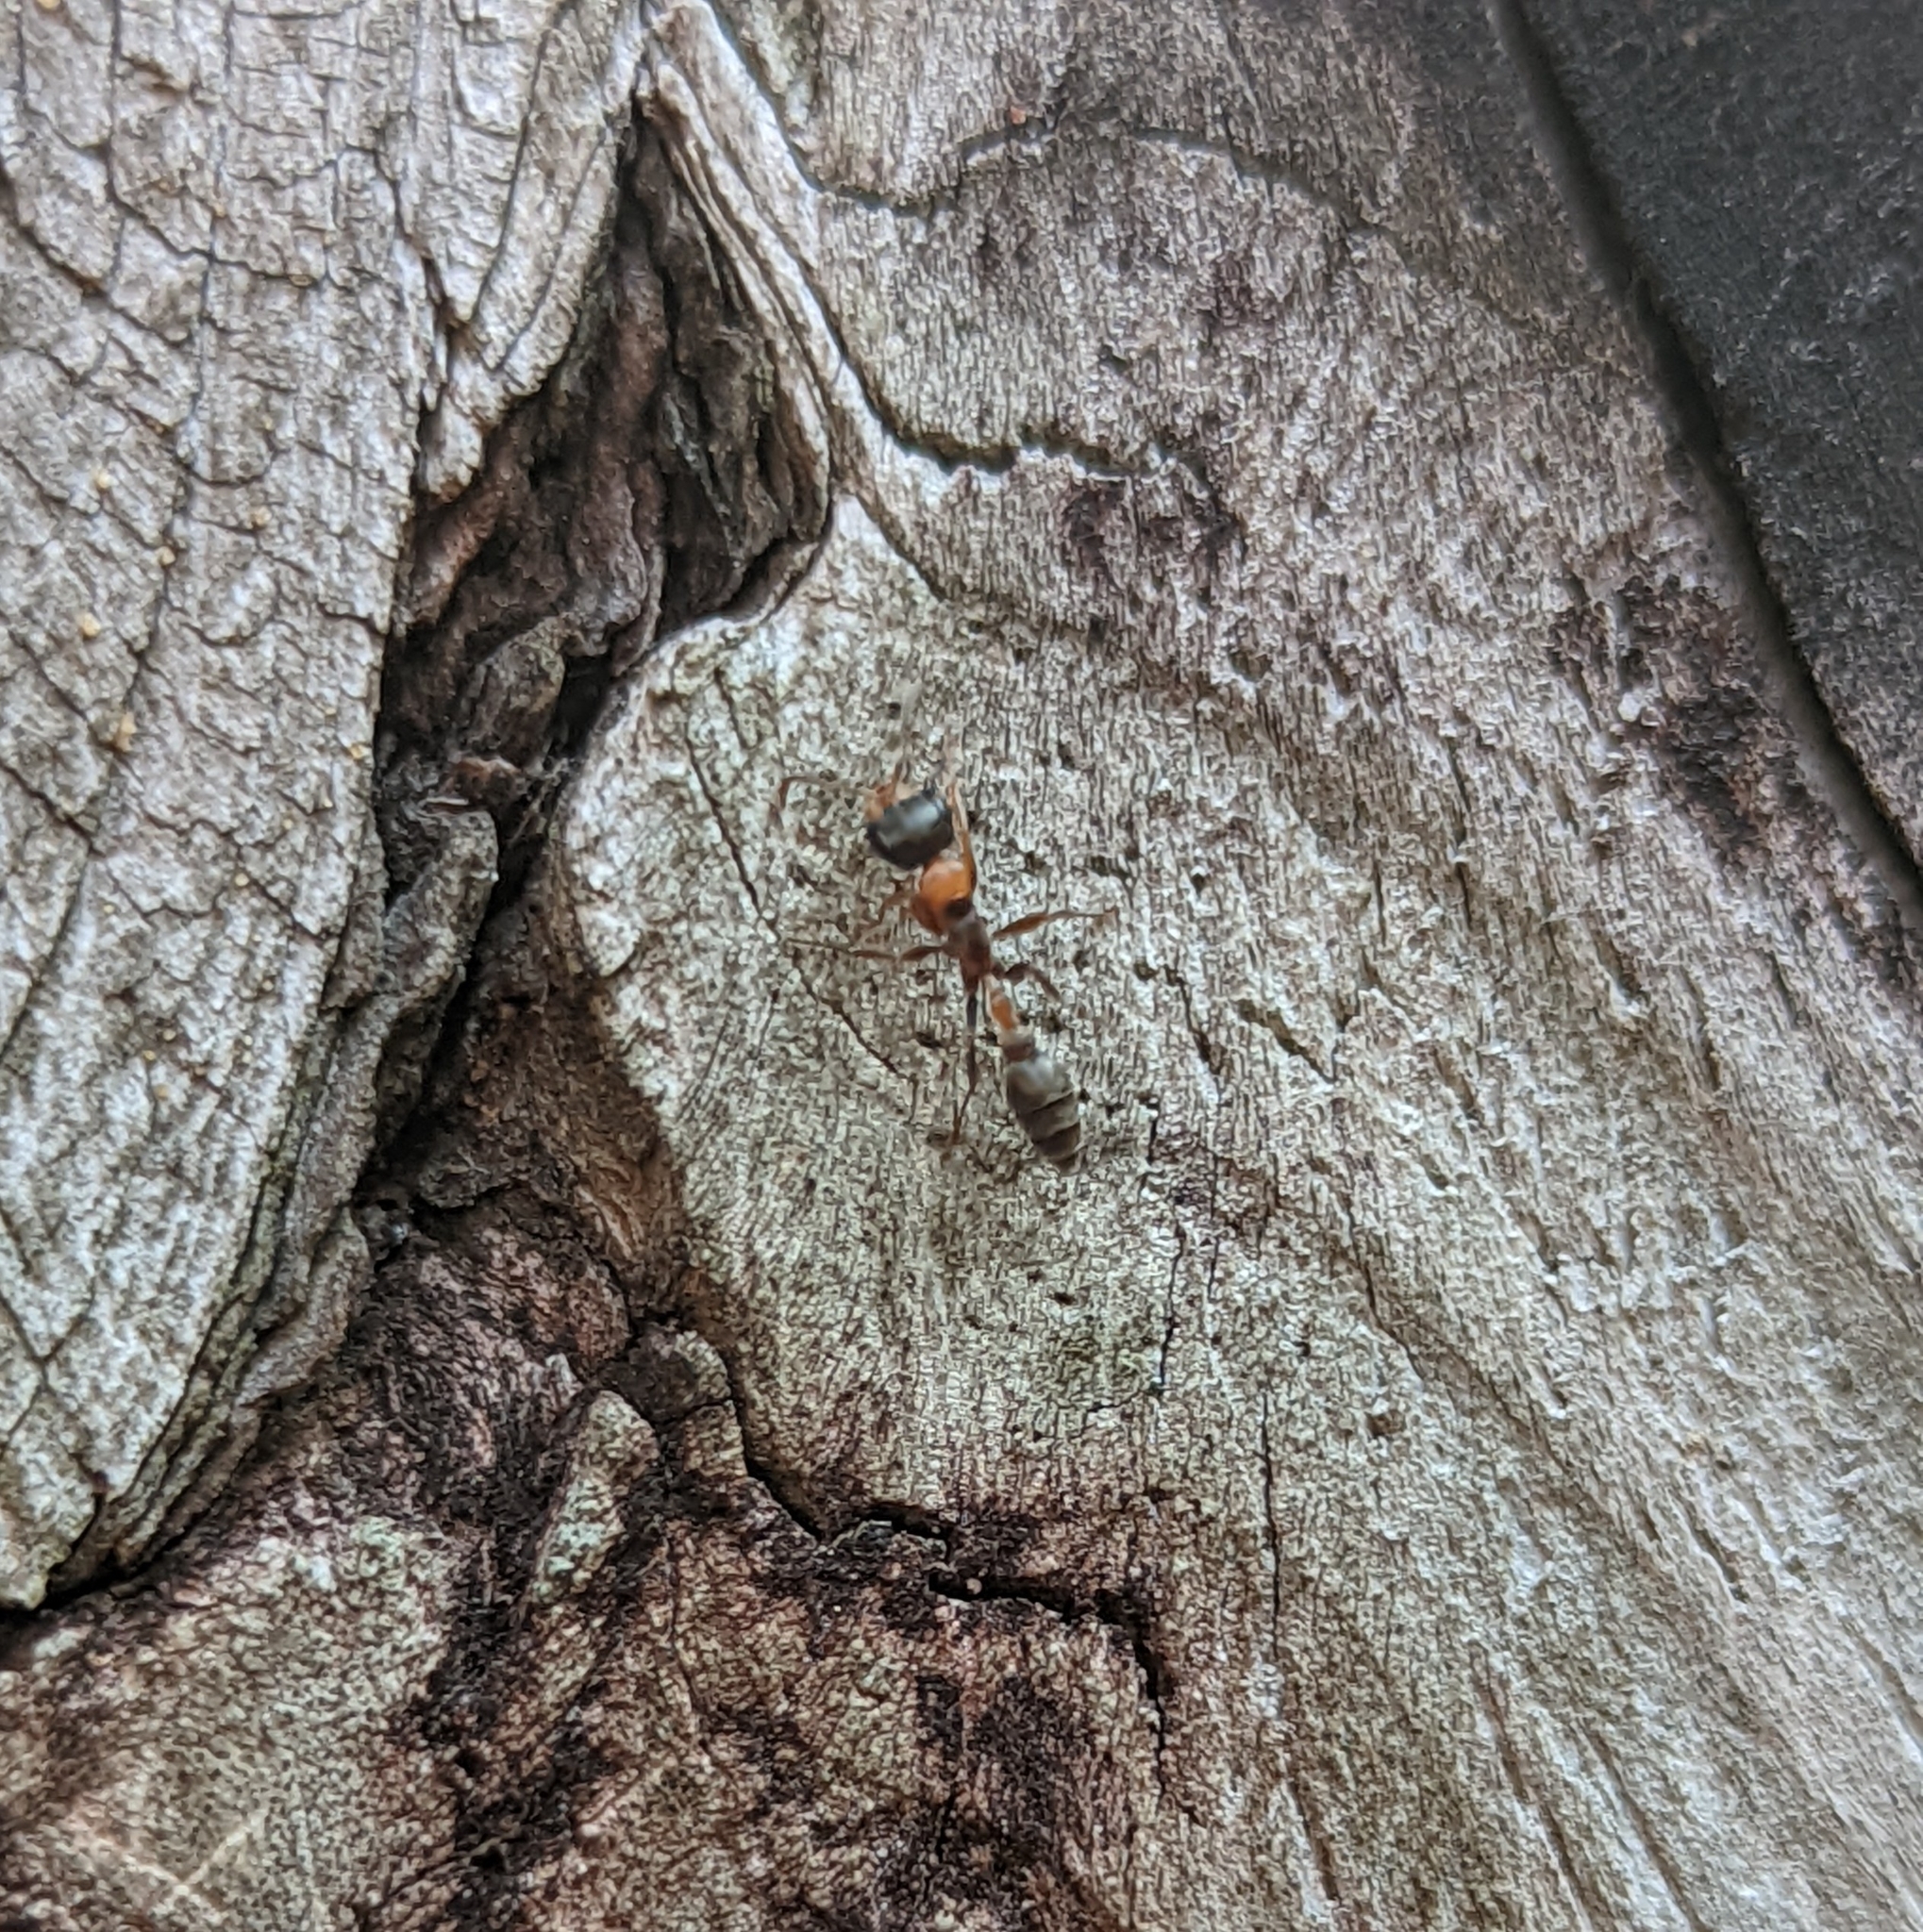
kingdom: Animalia
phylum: Arthropoda
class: Insecta
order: Hymenoptera
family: Formicidae
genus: Pseudomyrmex
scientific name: Pseudomyrmex gracilis
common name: Graceful twig ant
